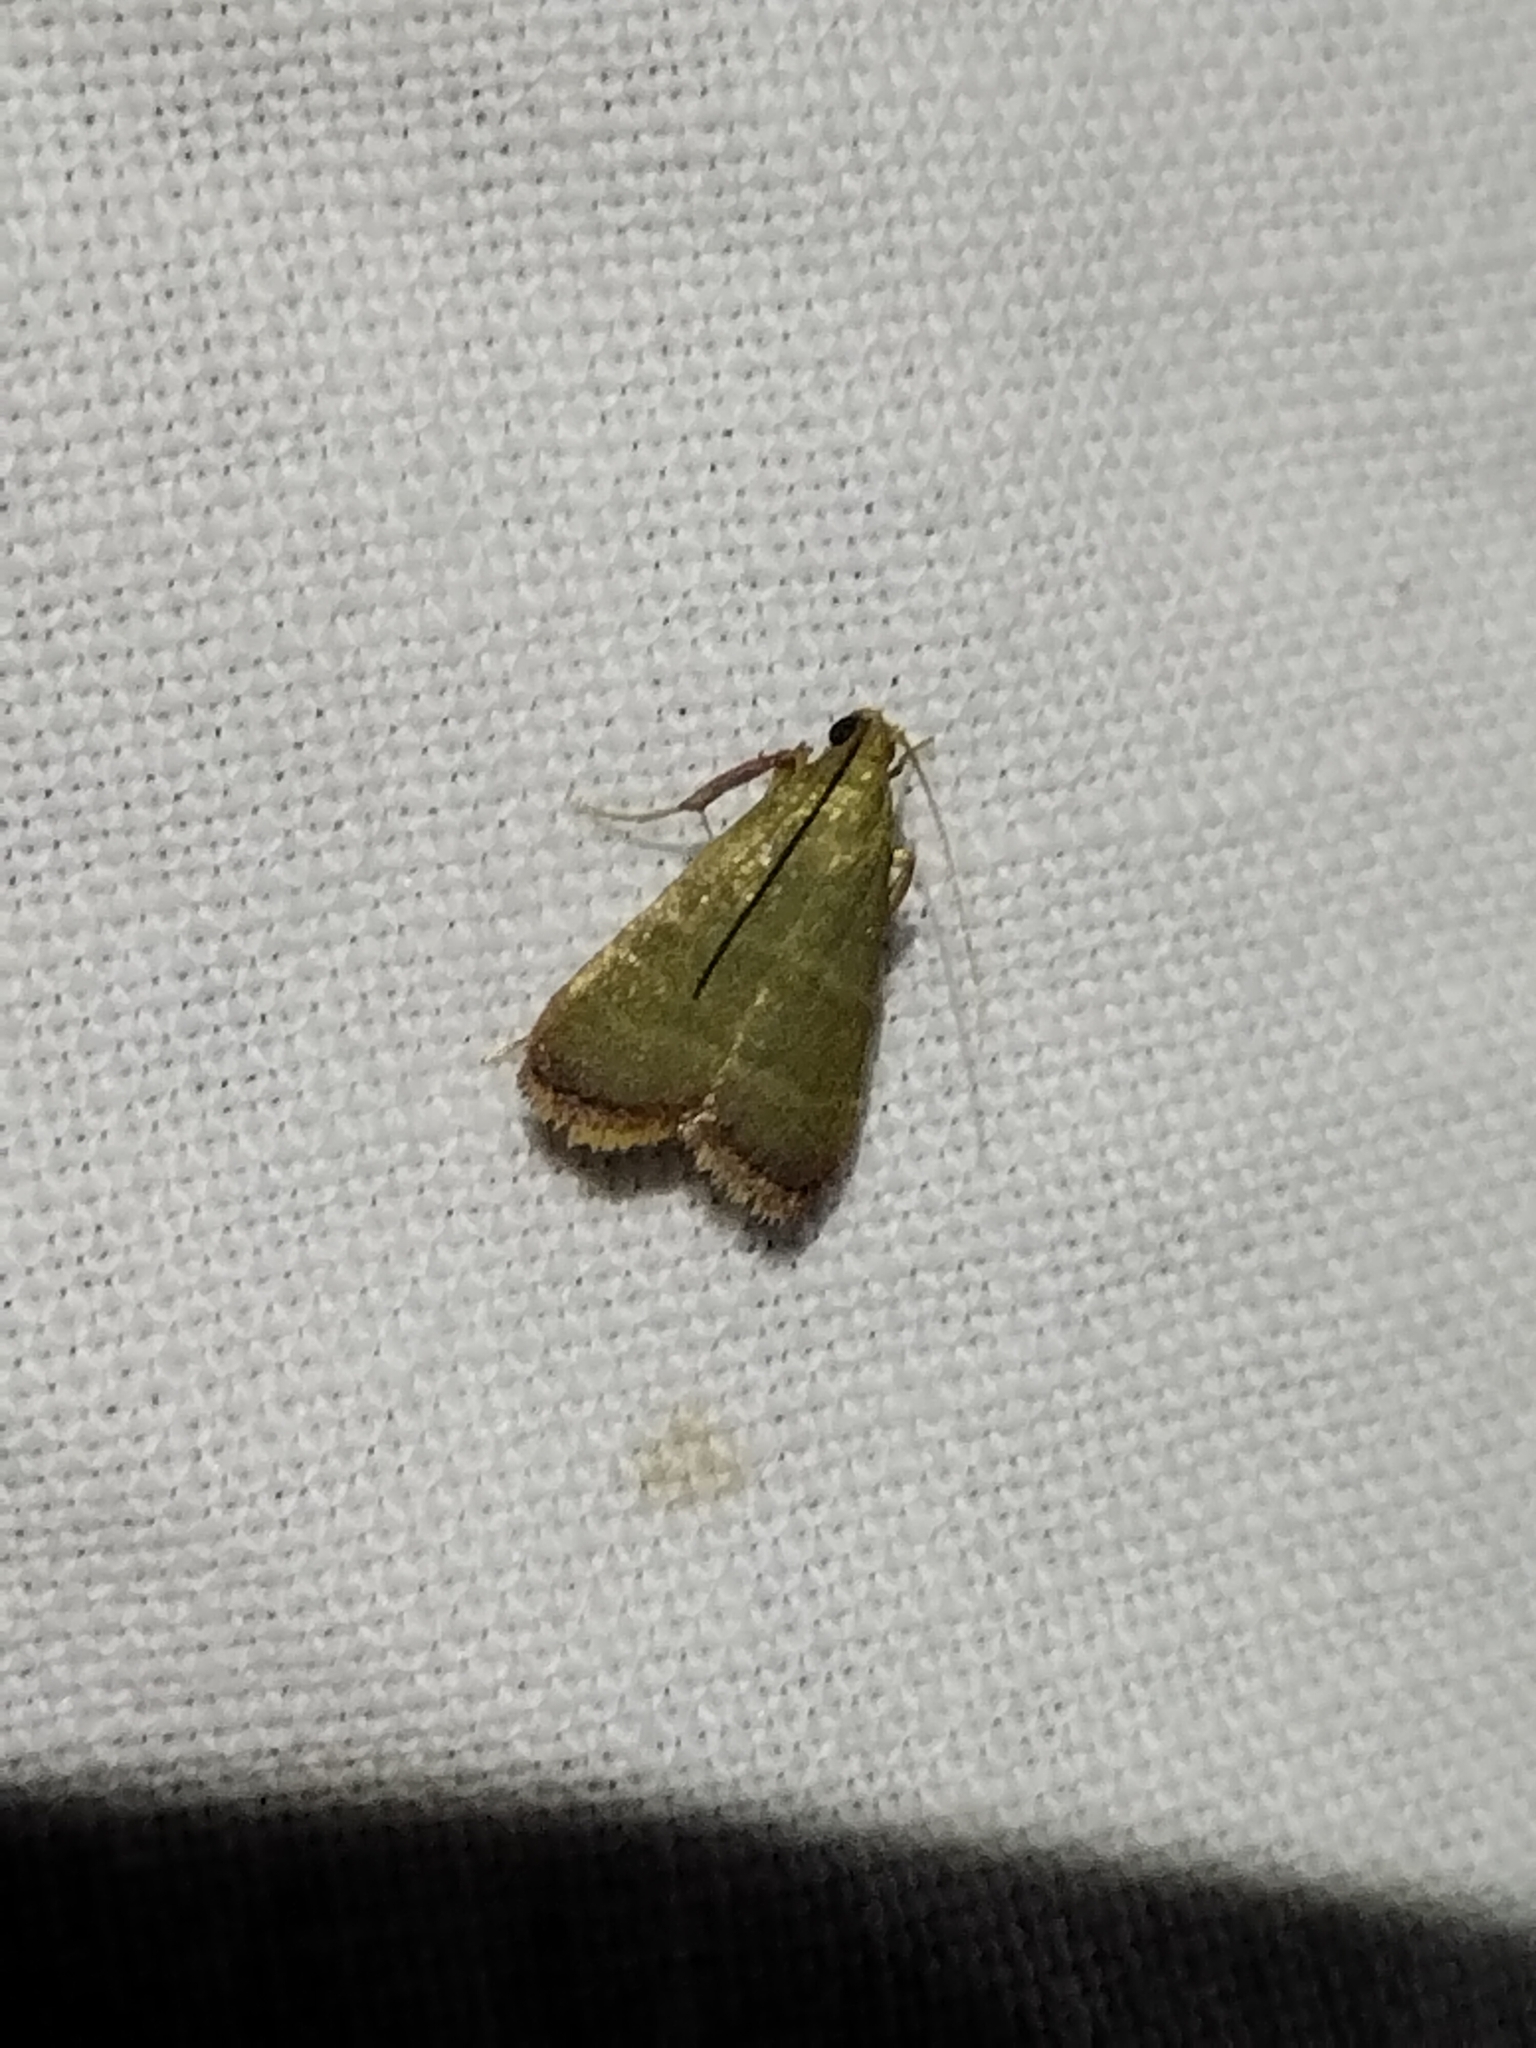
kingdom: Animalia
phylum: Arthropoda
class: Insecta
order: Lepidoptera
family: Pyralidae
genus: Arta
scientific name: Arta olivalis
